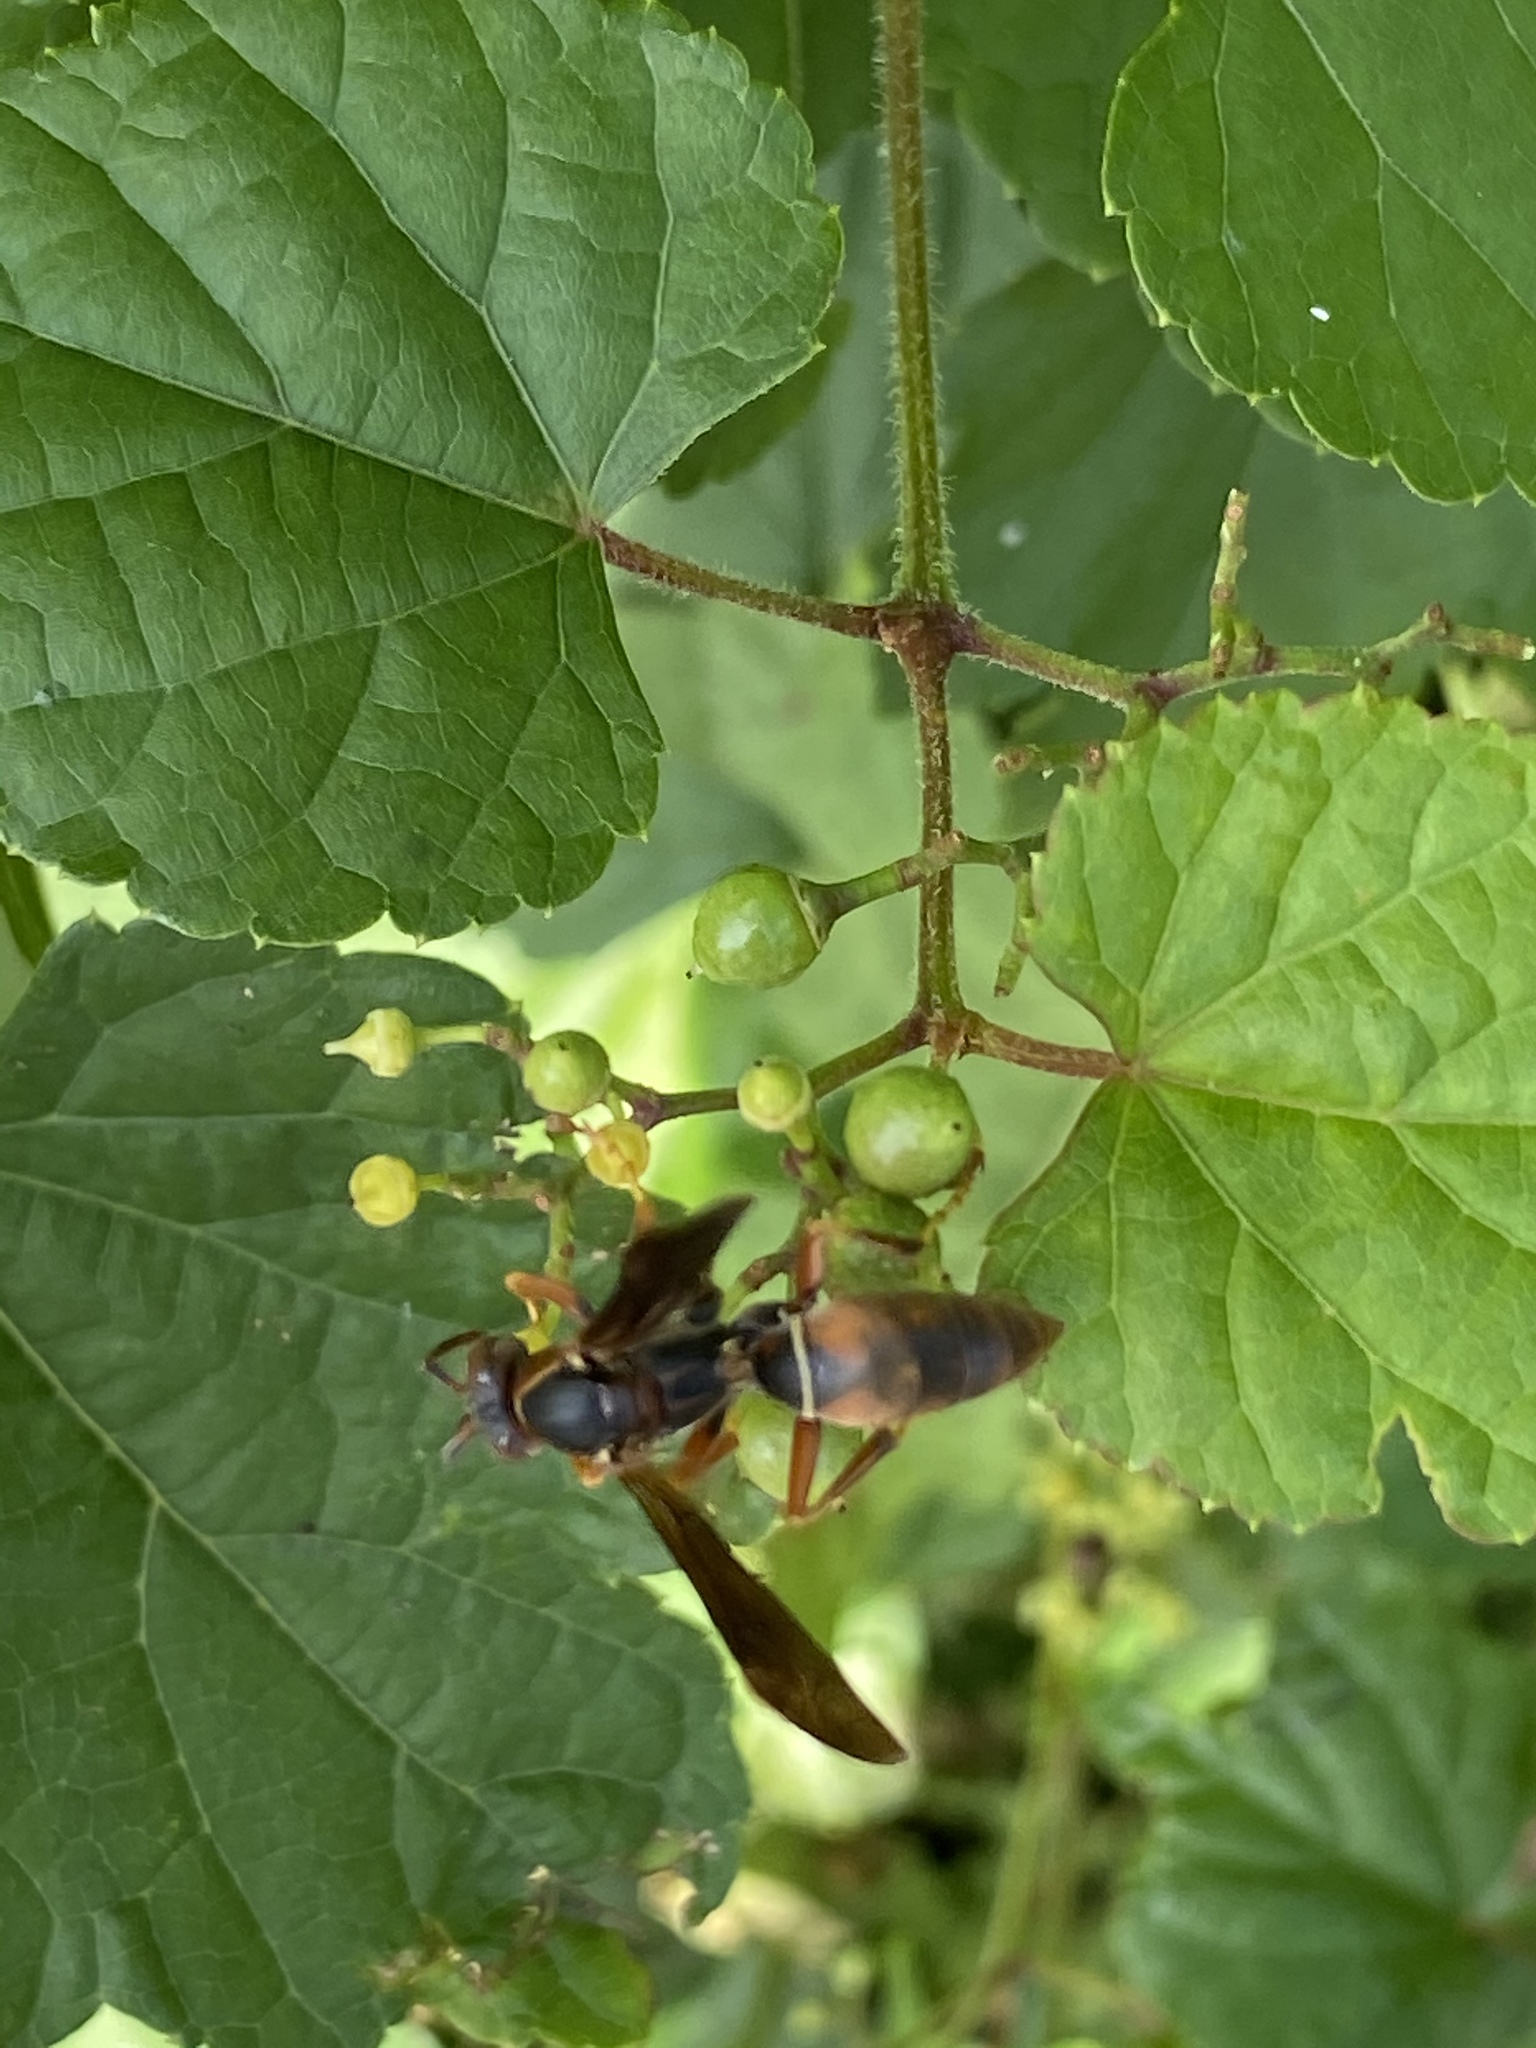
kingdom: Animalia
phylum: Arthropoda
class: Insecta
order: Hymenoptera
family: Eumenidae
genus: Polistes
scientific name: Polistes fuscatus
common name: Dark paper wasp
